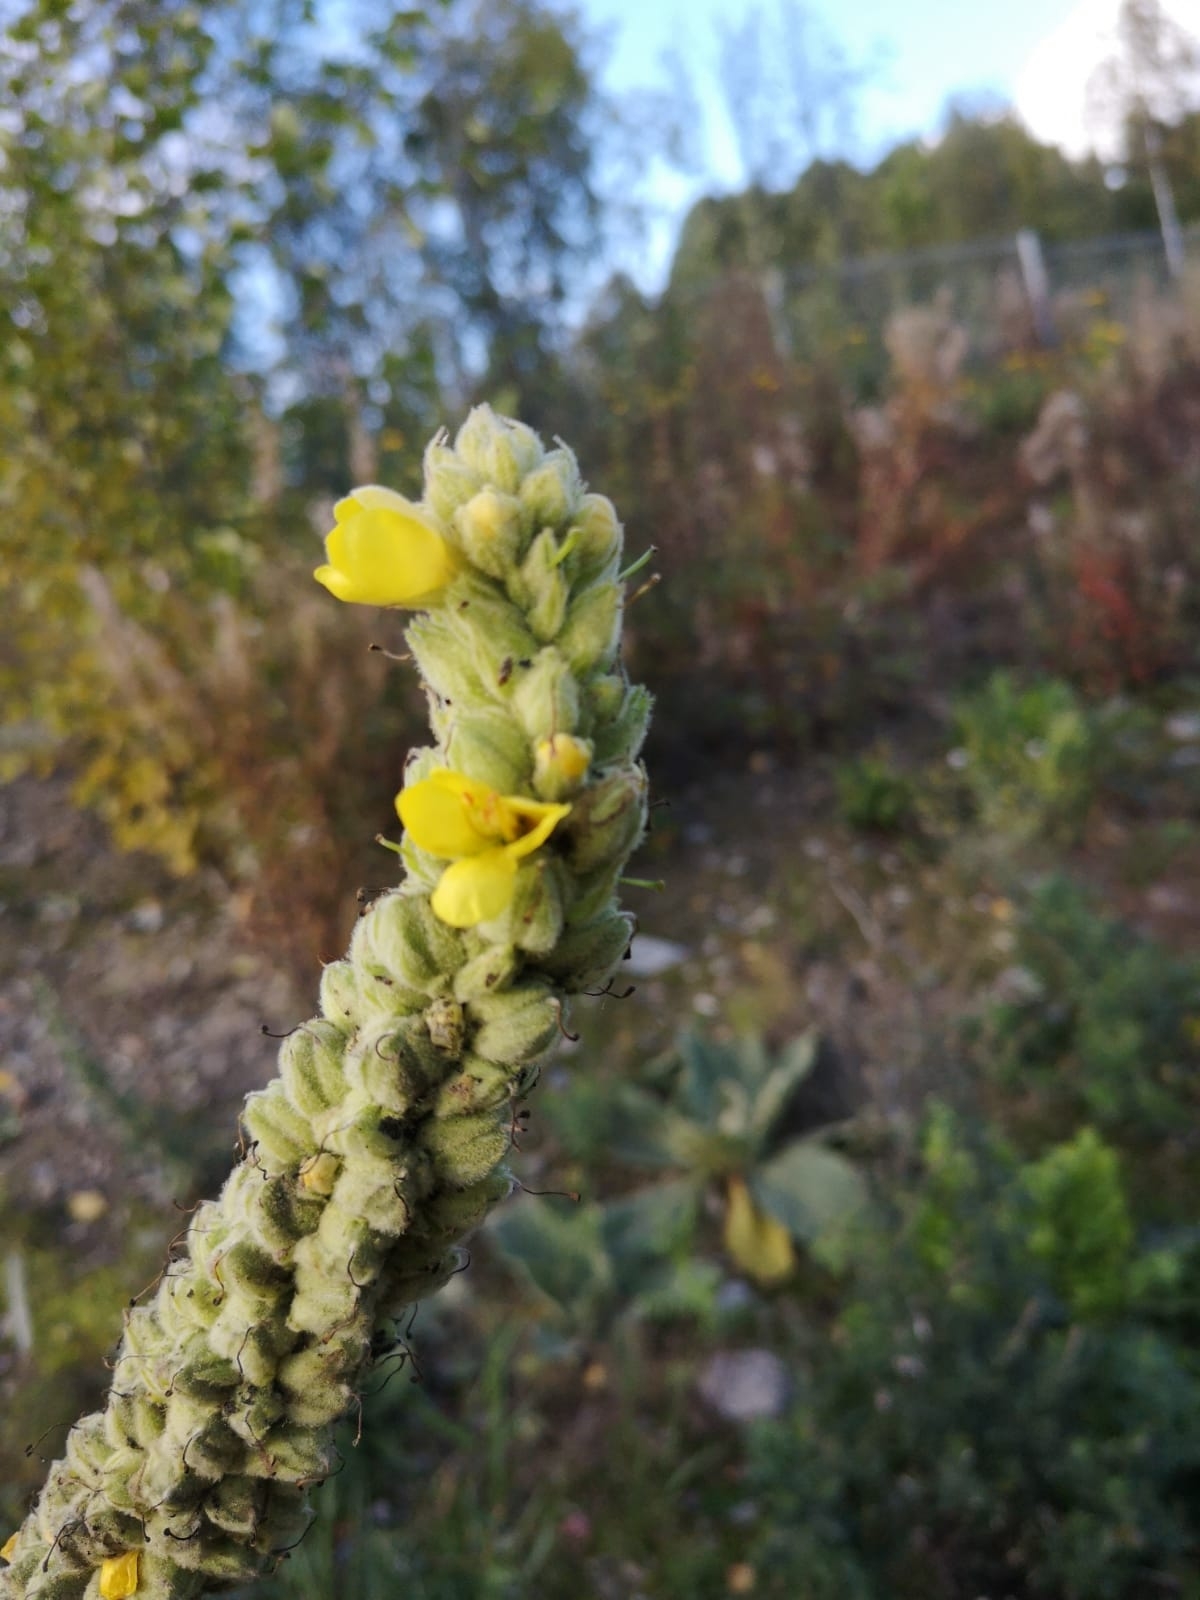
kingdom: Plantae
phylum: Tracheophyta
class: Magnoliopsida
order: Lamiales
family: Scrophulariaceae
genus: Verbascum
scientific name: Verbascum thapsus
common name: Common mullein
